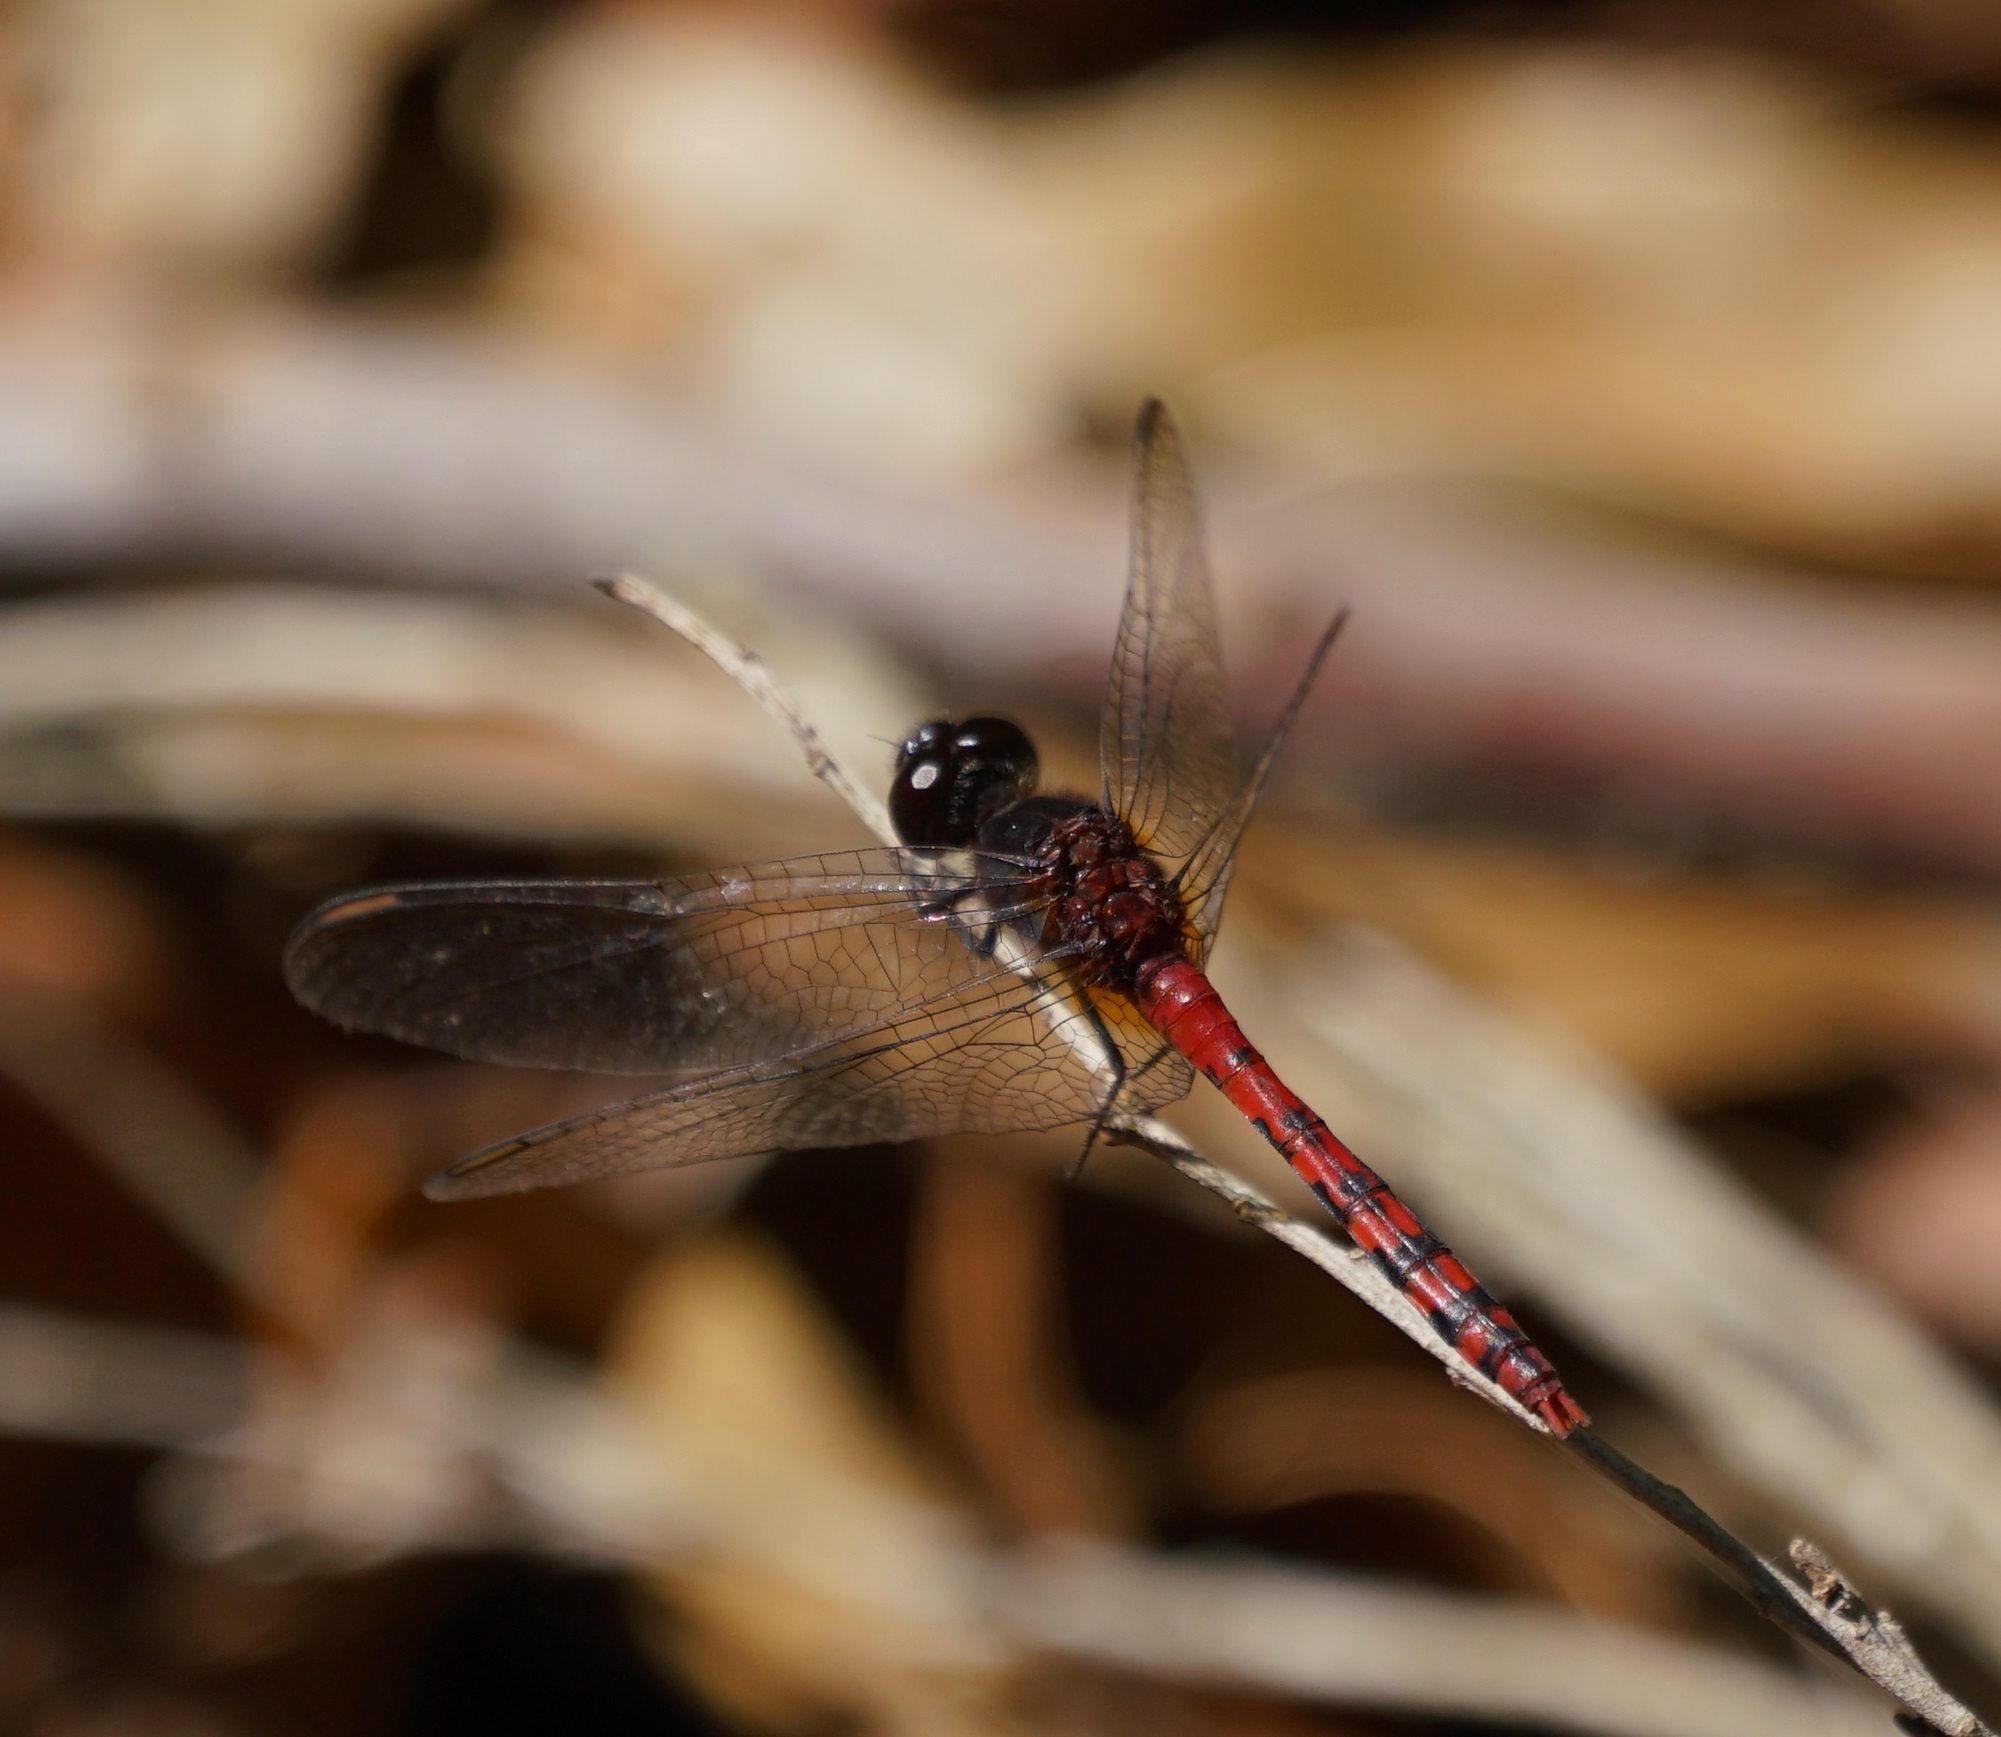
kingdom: Animalia
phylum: Arthropoda
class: Insecta
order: Odonata
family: Libellulidae
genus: Diplacodes
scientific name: Diplacodes melanopsis
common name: Black-faced percher
